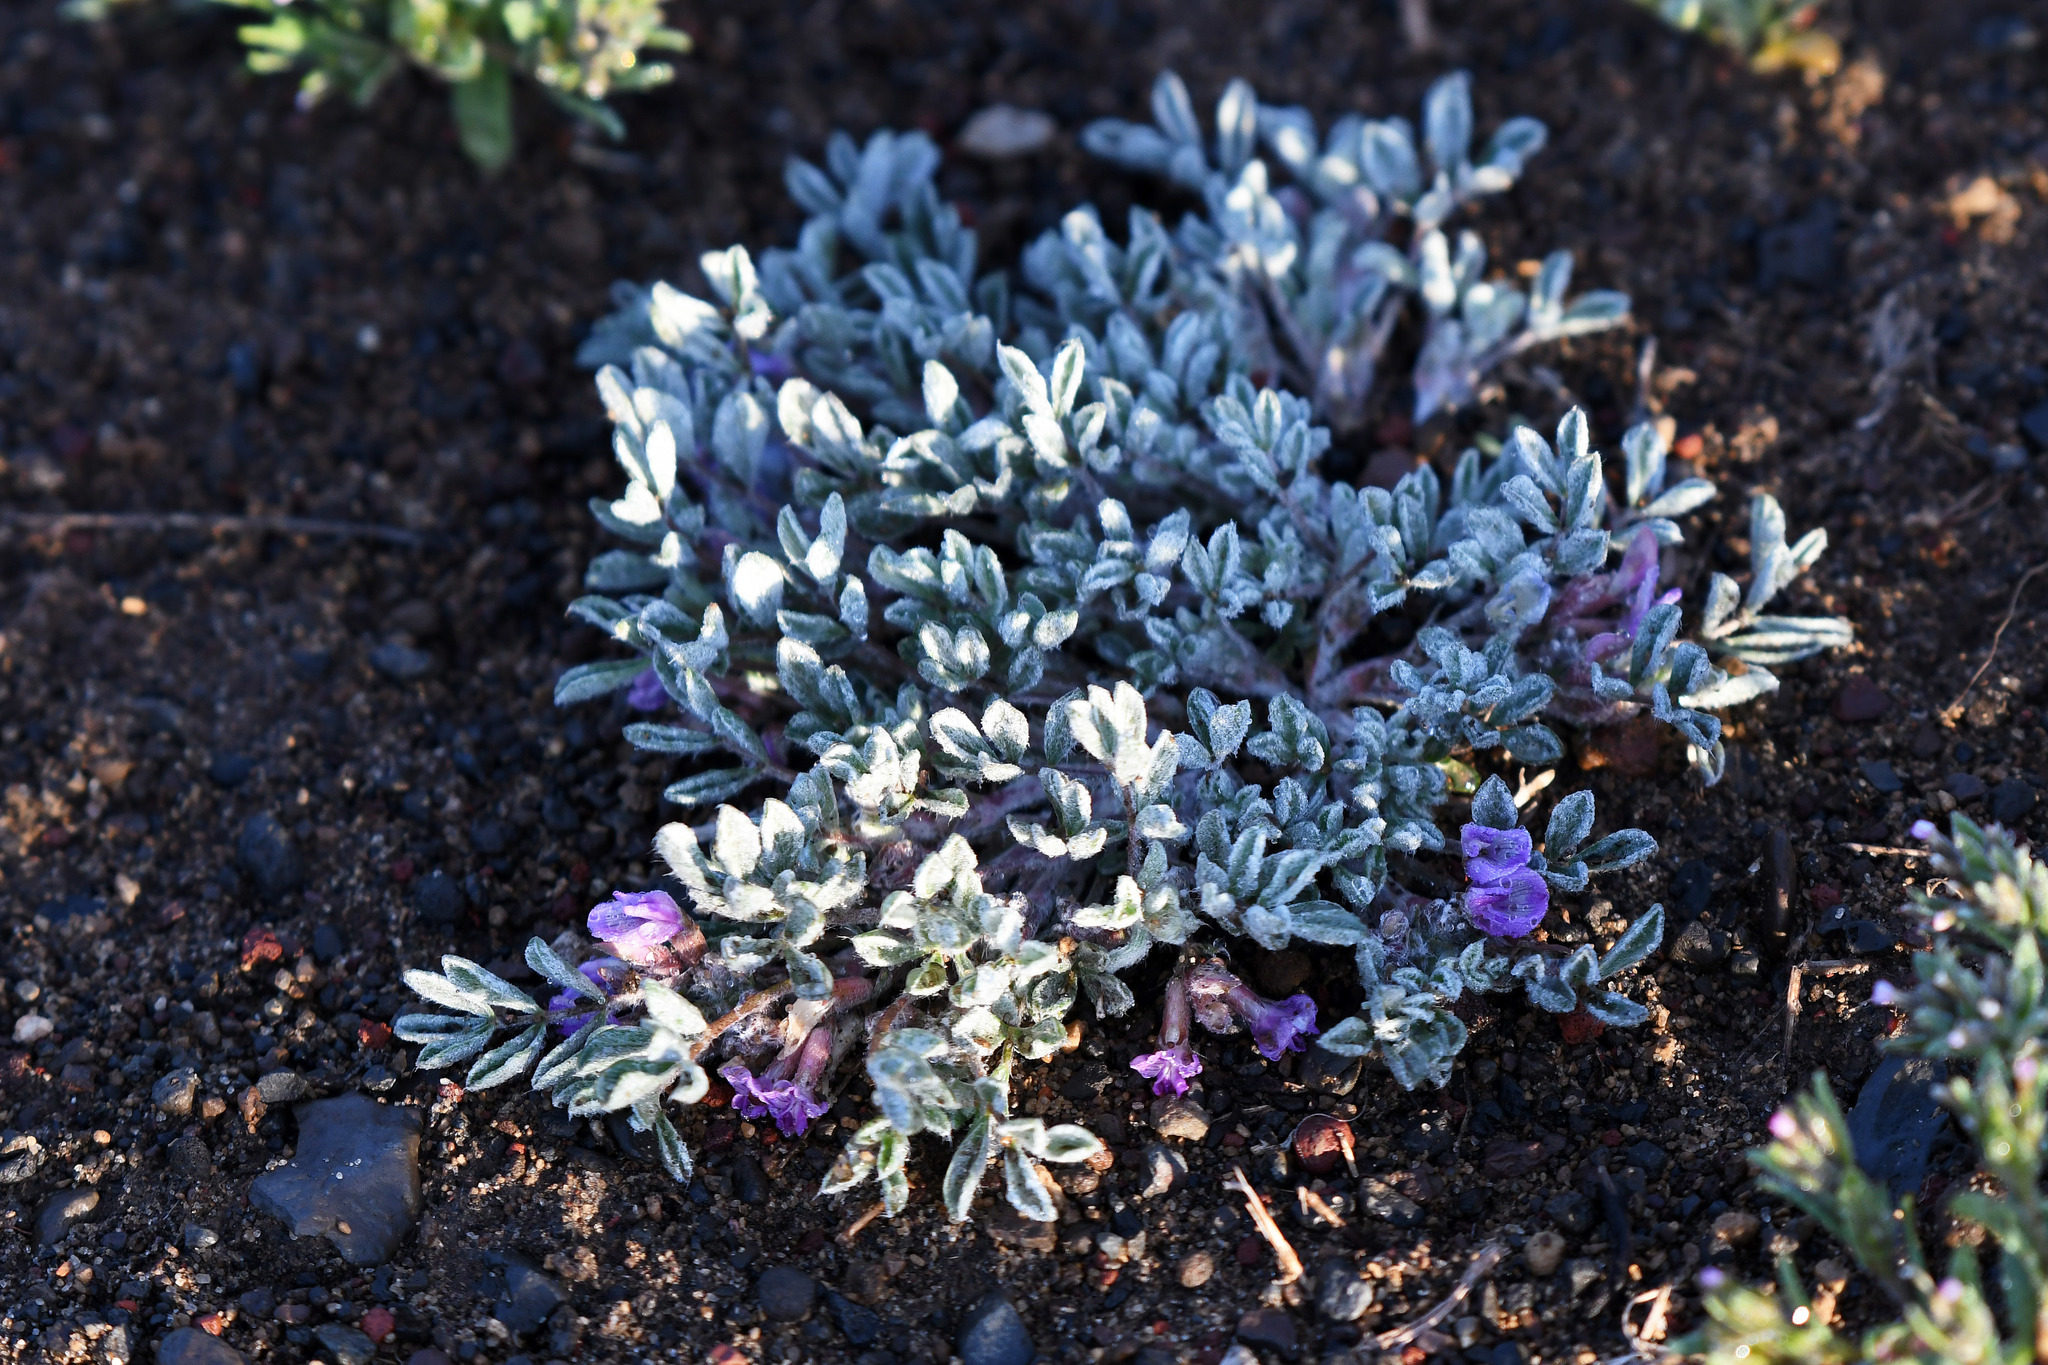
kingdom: Plantae
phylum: Tracheophyta
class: Magnoliopsida
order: Fabales
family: Fabaceae
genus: Astragalus
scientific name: Astragalus purshii
